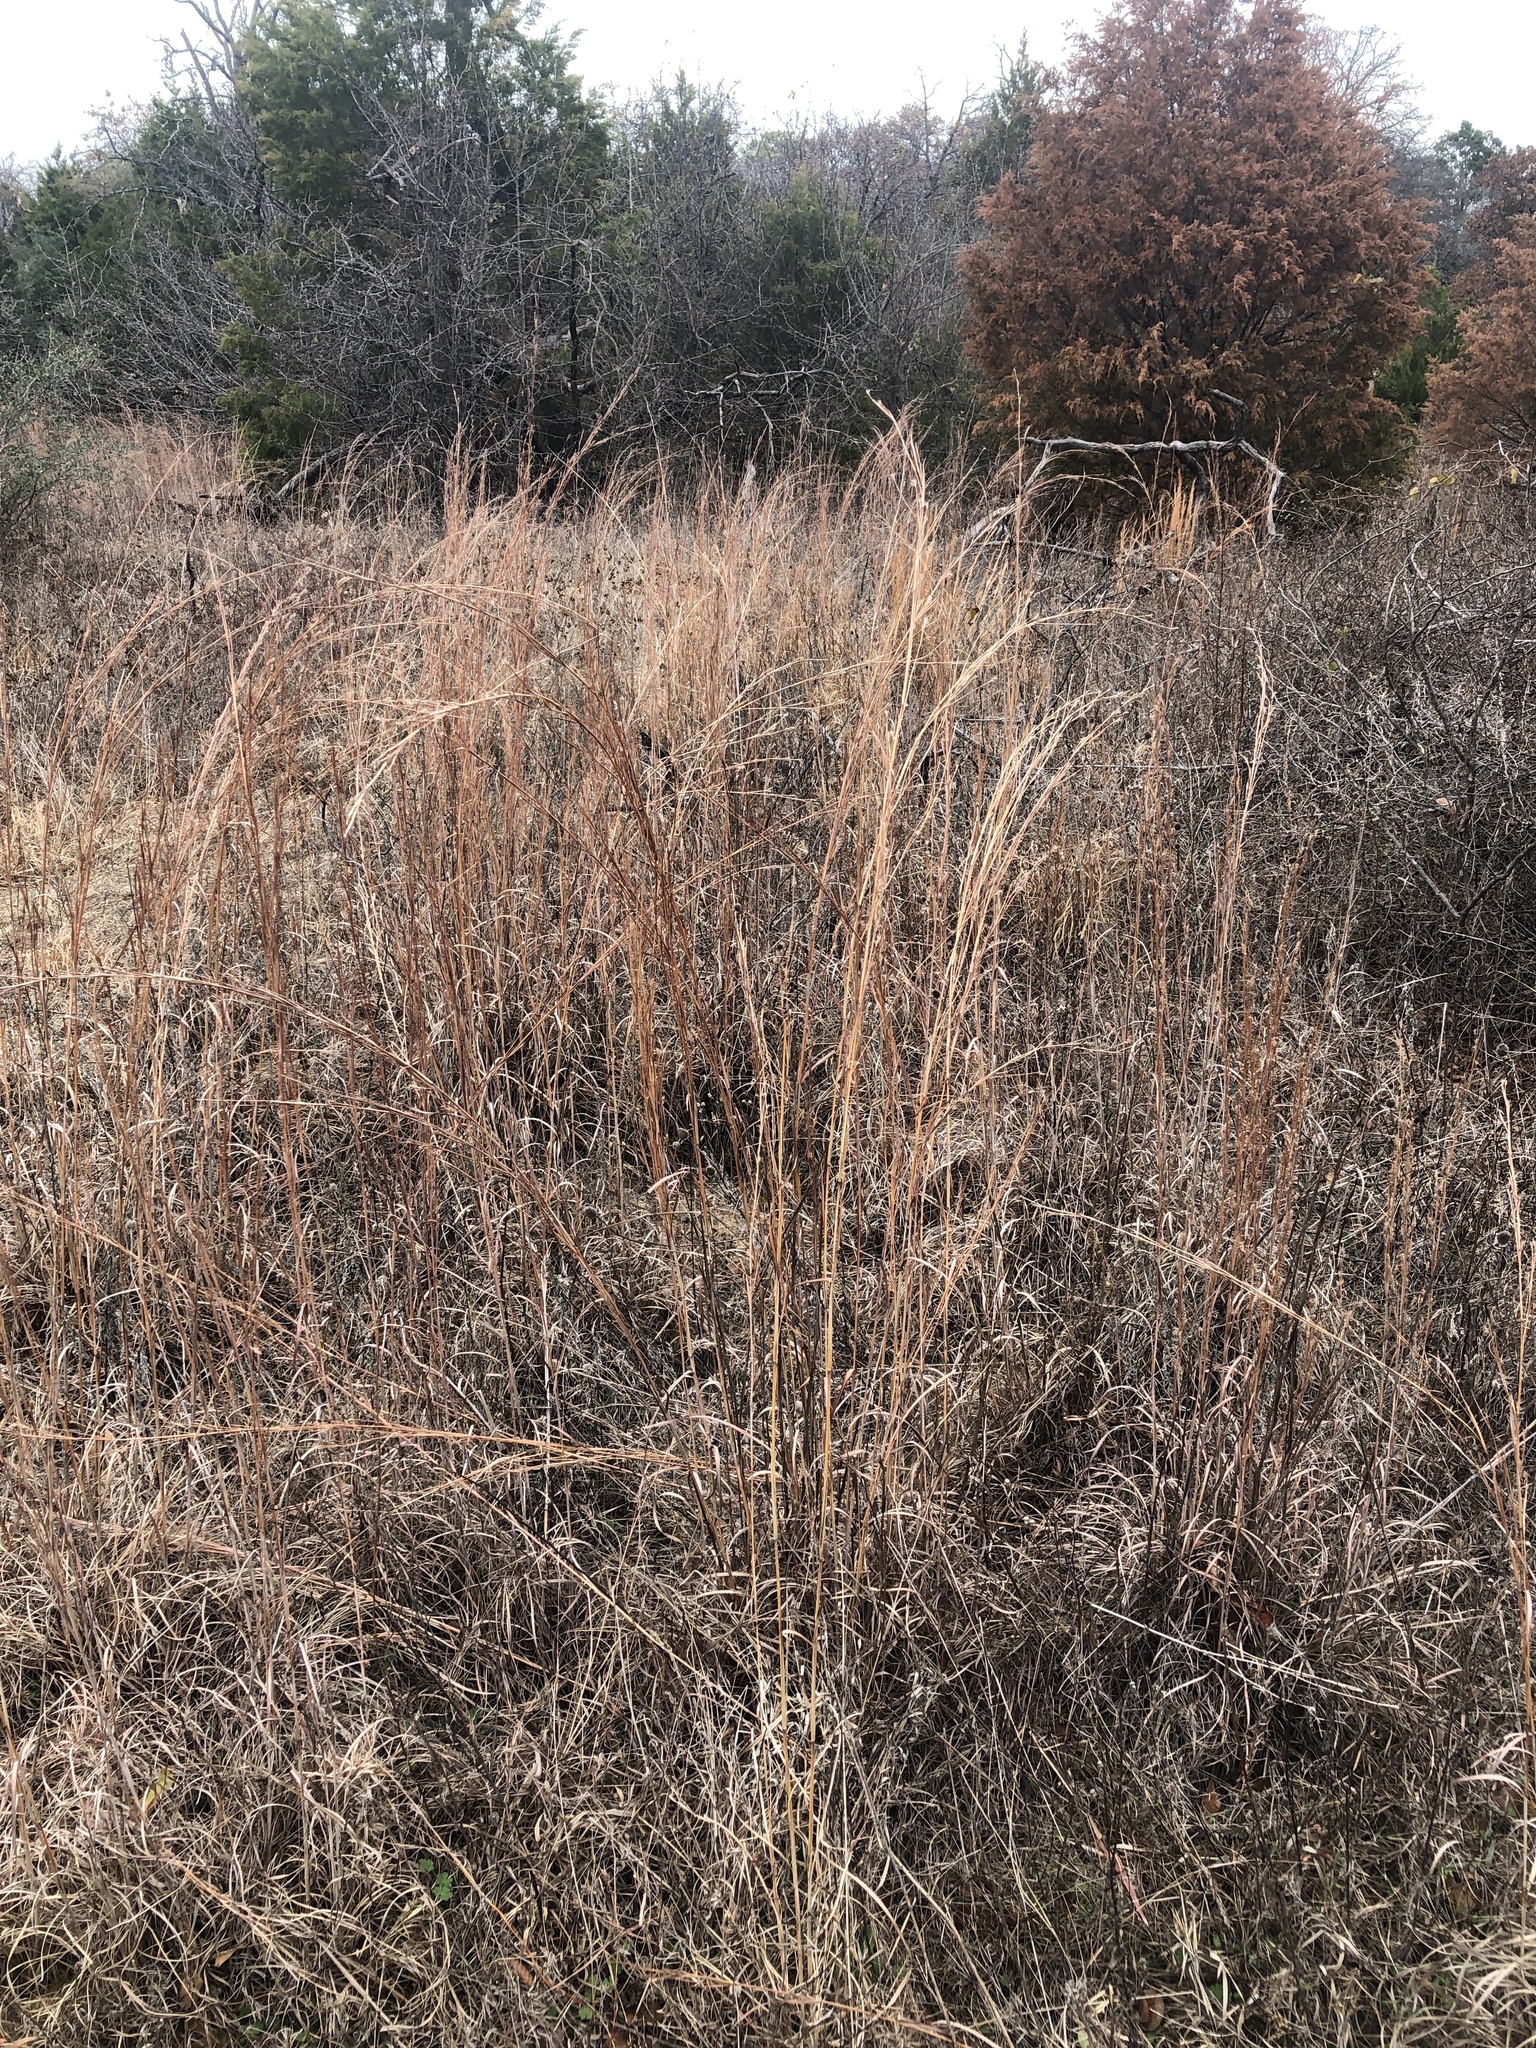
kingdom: Plantae
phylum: Tracheophyta
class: Liliopsida
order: Poales
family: Poaceae
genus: Schizachyrium
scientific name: Schizachyrium scoparium
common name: Little bluestem
